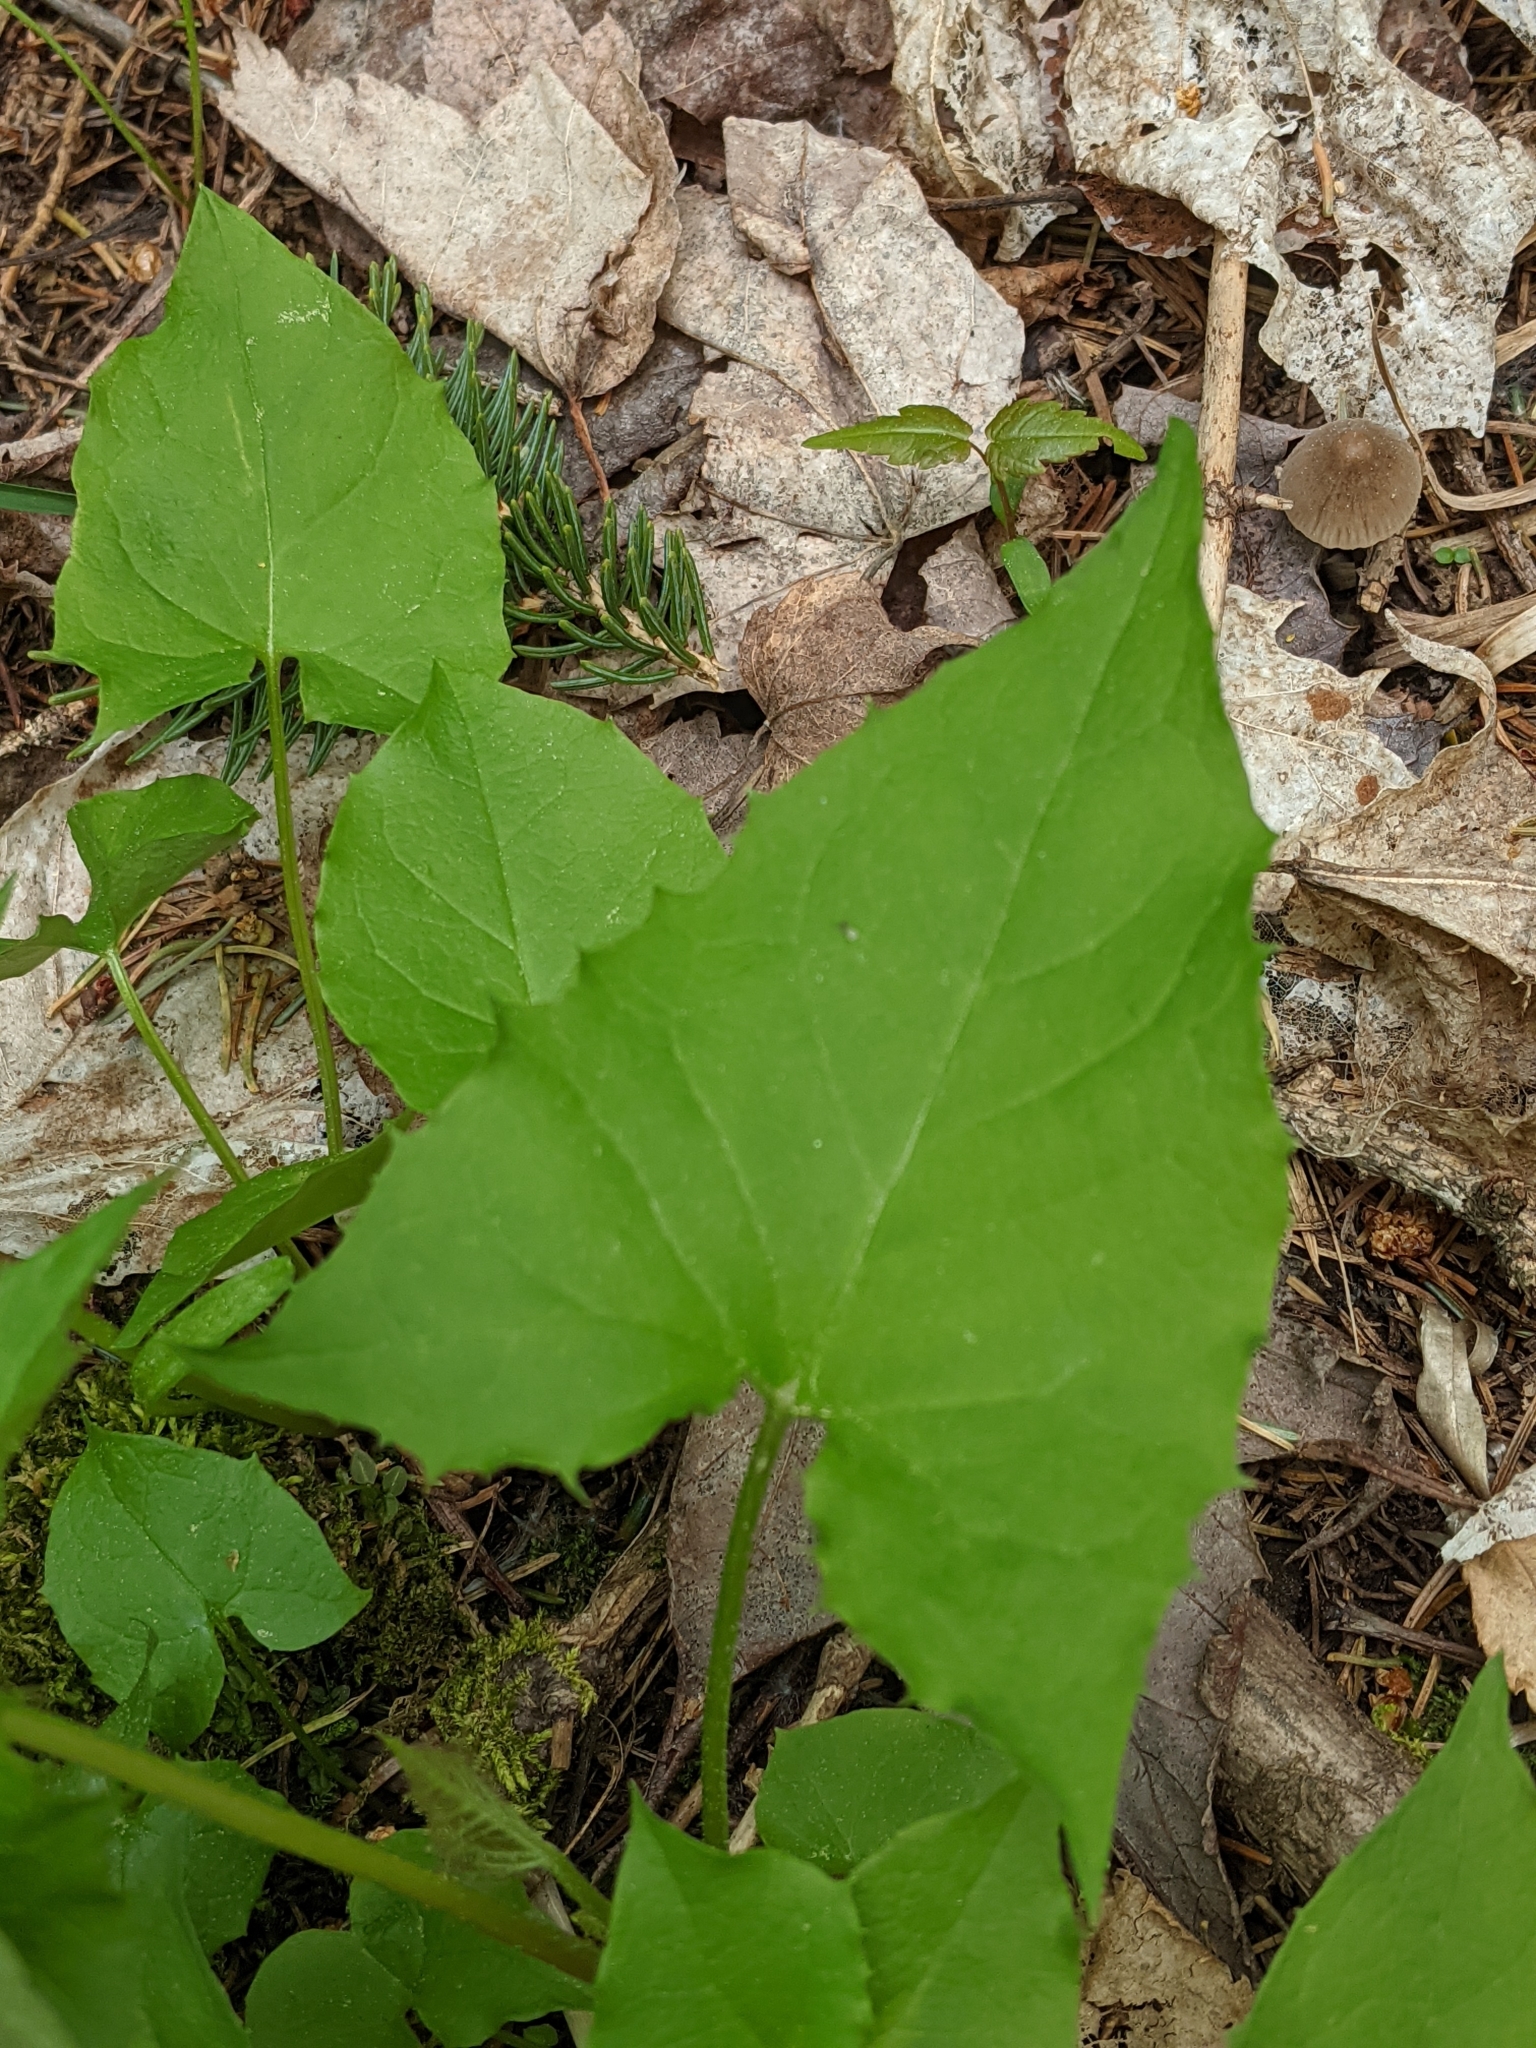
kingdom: Plantae
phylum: Tracheophyta
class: Magnoliopsida
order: Asterales
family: Asteraceae
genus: Nabalus
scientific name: Nabalus
